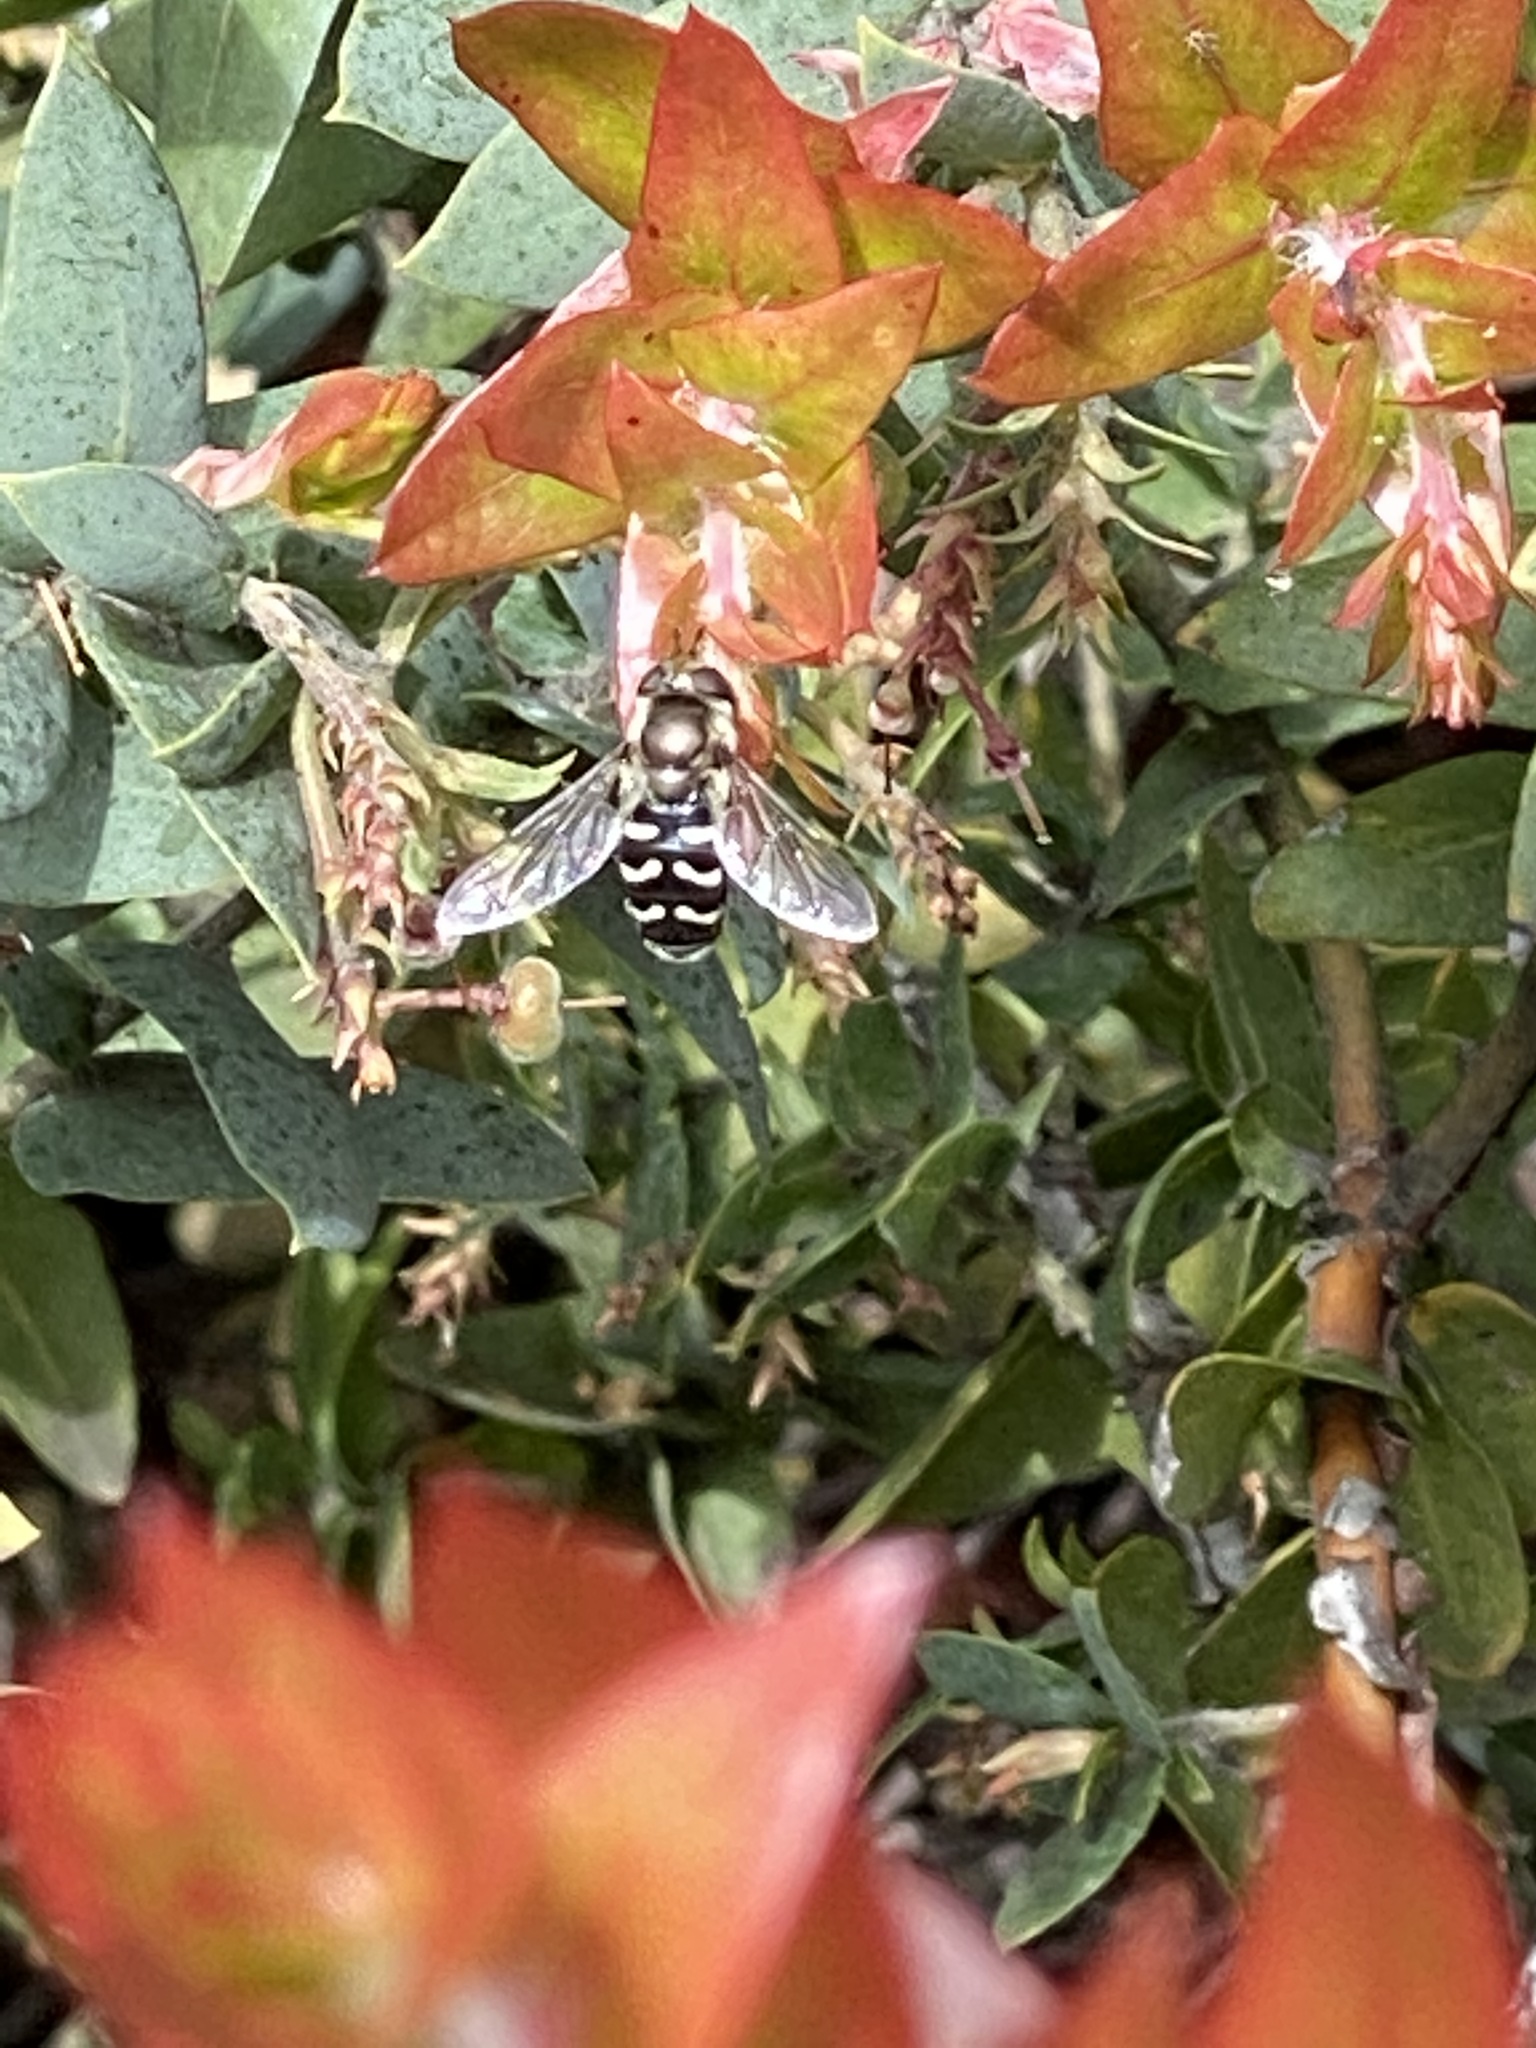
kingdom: Animalia
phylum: Arthropoda
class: Insecta
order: Diptera
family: Syrphidae
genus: Scaeva
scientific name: Scaeva affinis
